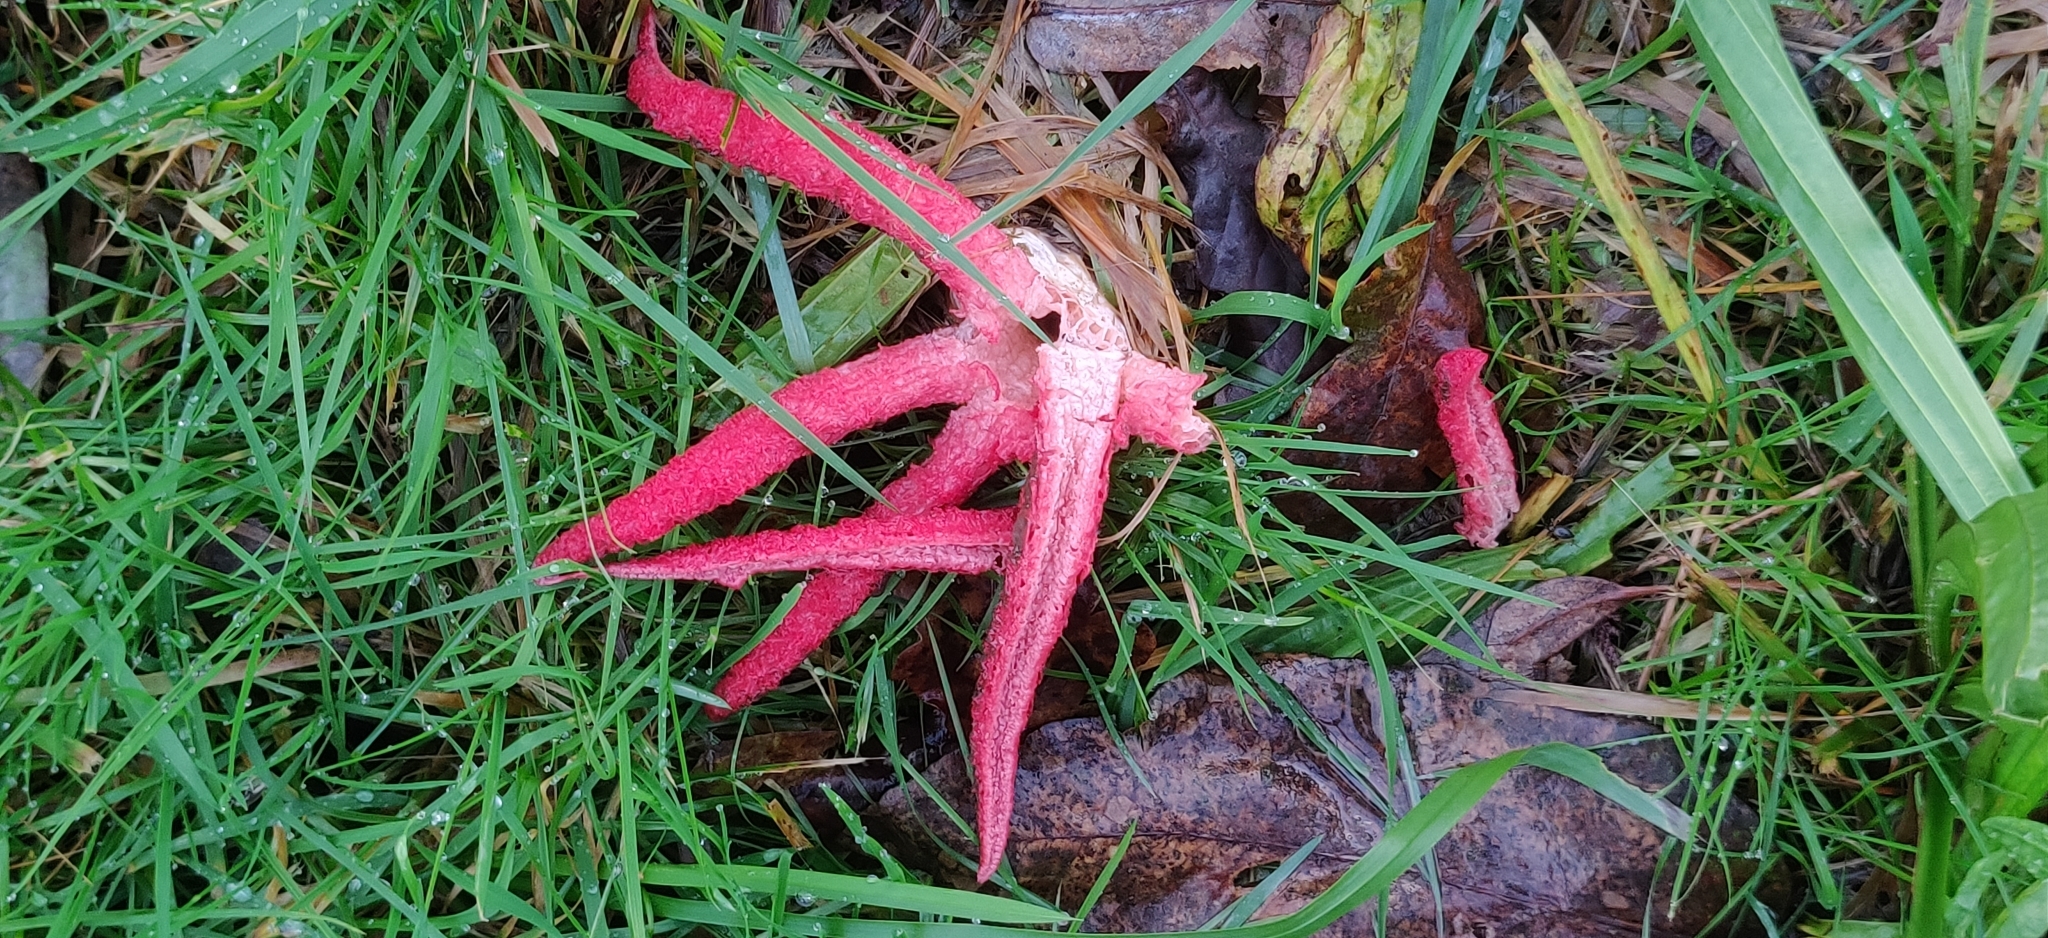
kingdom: Fungi
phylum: Basidiomycota
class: Agaricomycetes
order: Phallales
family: Phallaceae
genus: Clathrus
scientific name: Clathrus archeri
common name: Devil's fingers
